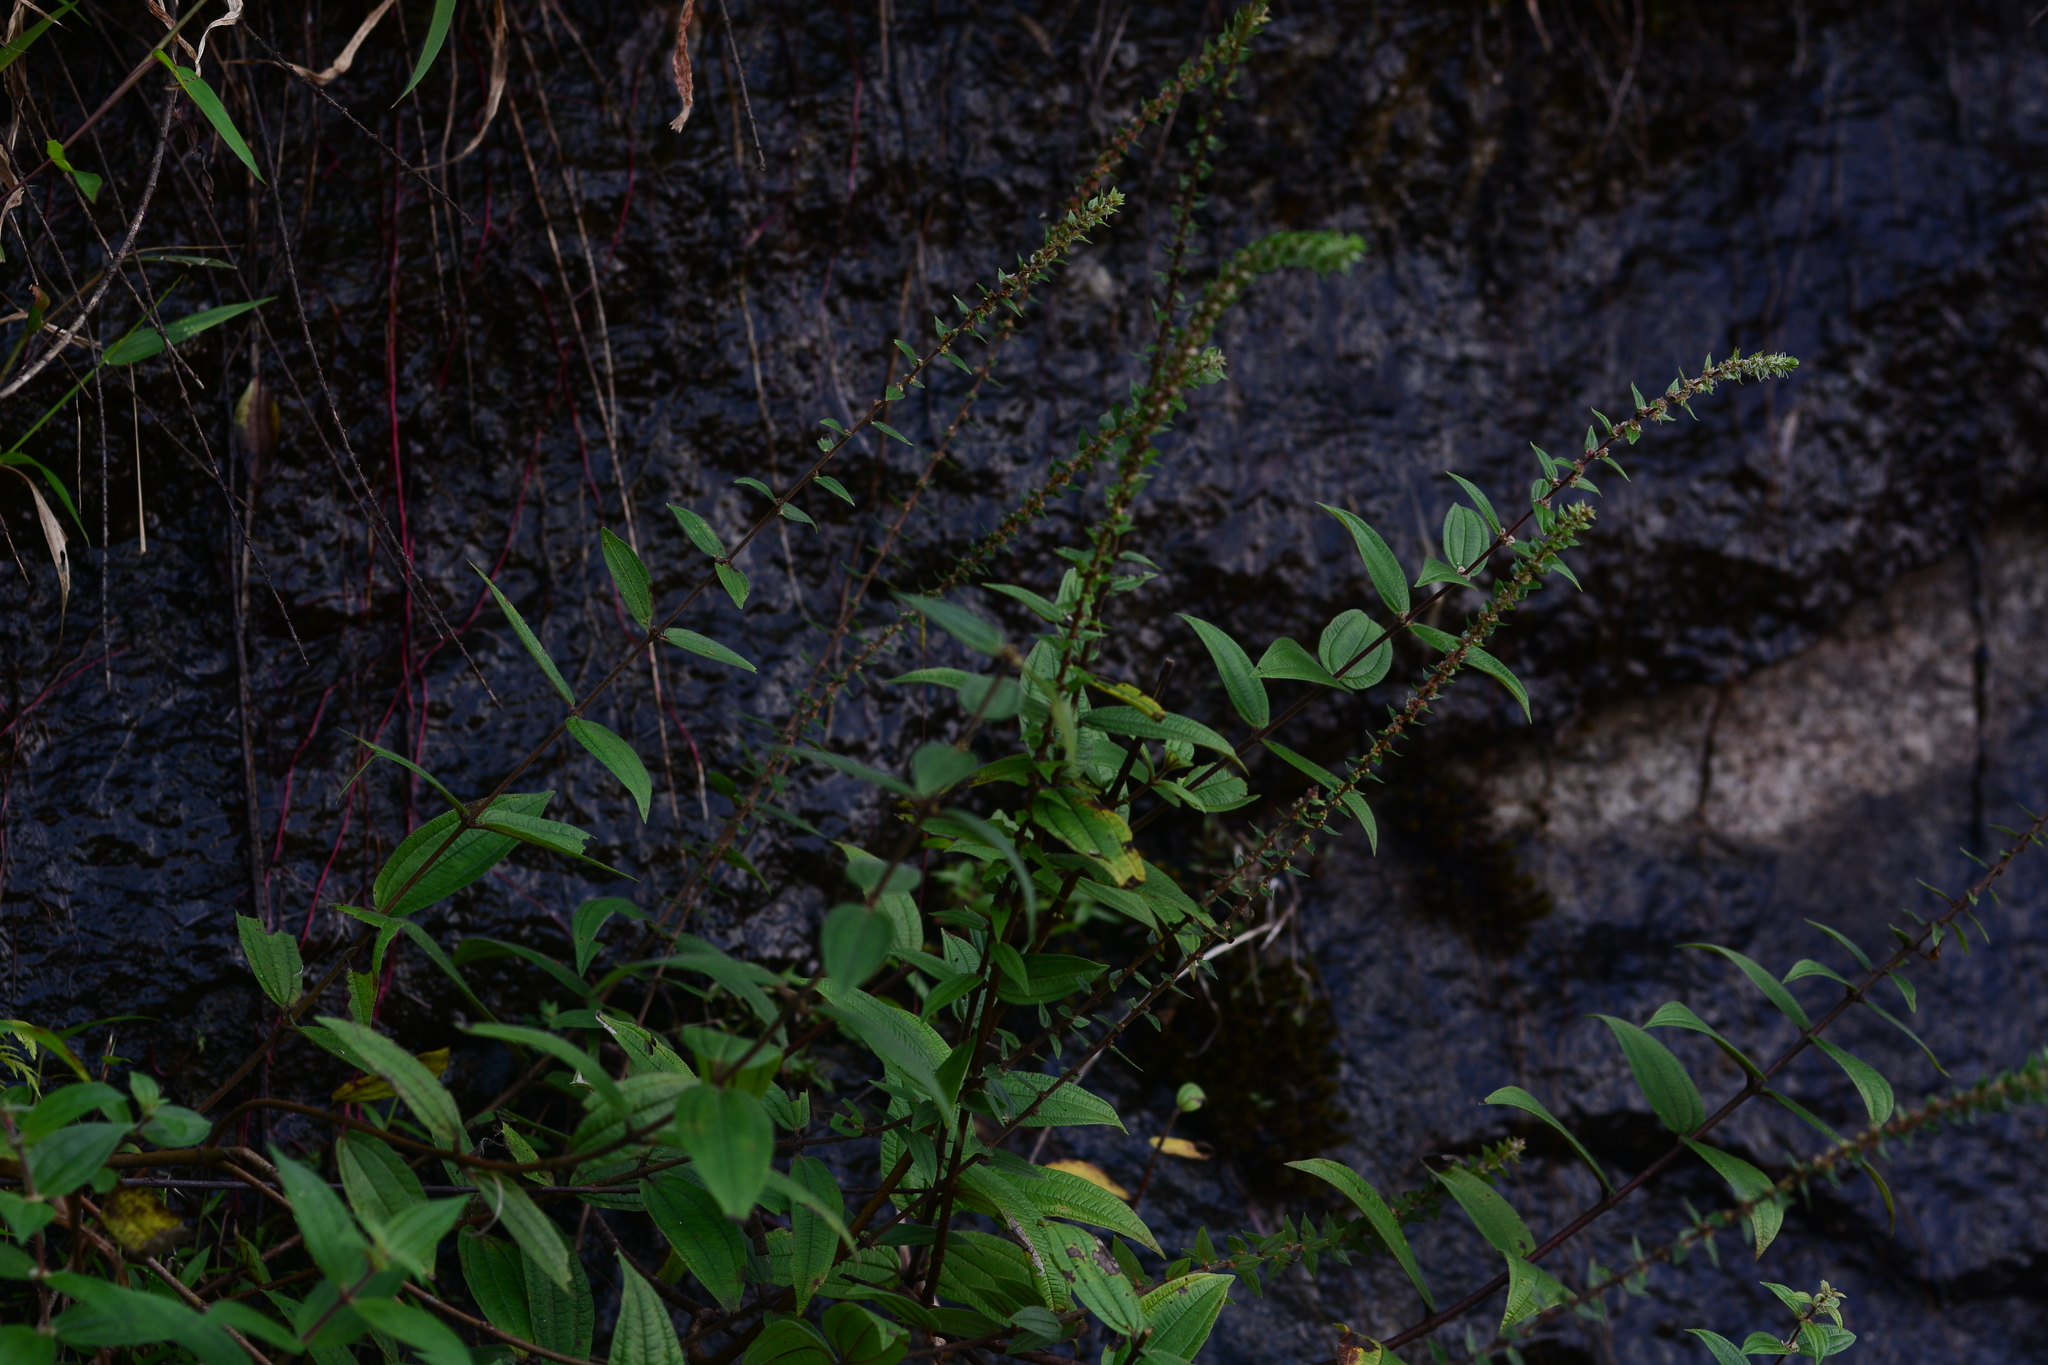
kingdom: Plantae
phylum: Tracheophyta
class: Magnoliopsida
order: Rosales
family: Urticaceae
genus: Gonostegia
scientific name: Gonostegia pentandra
